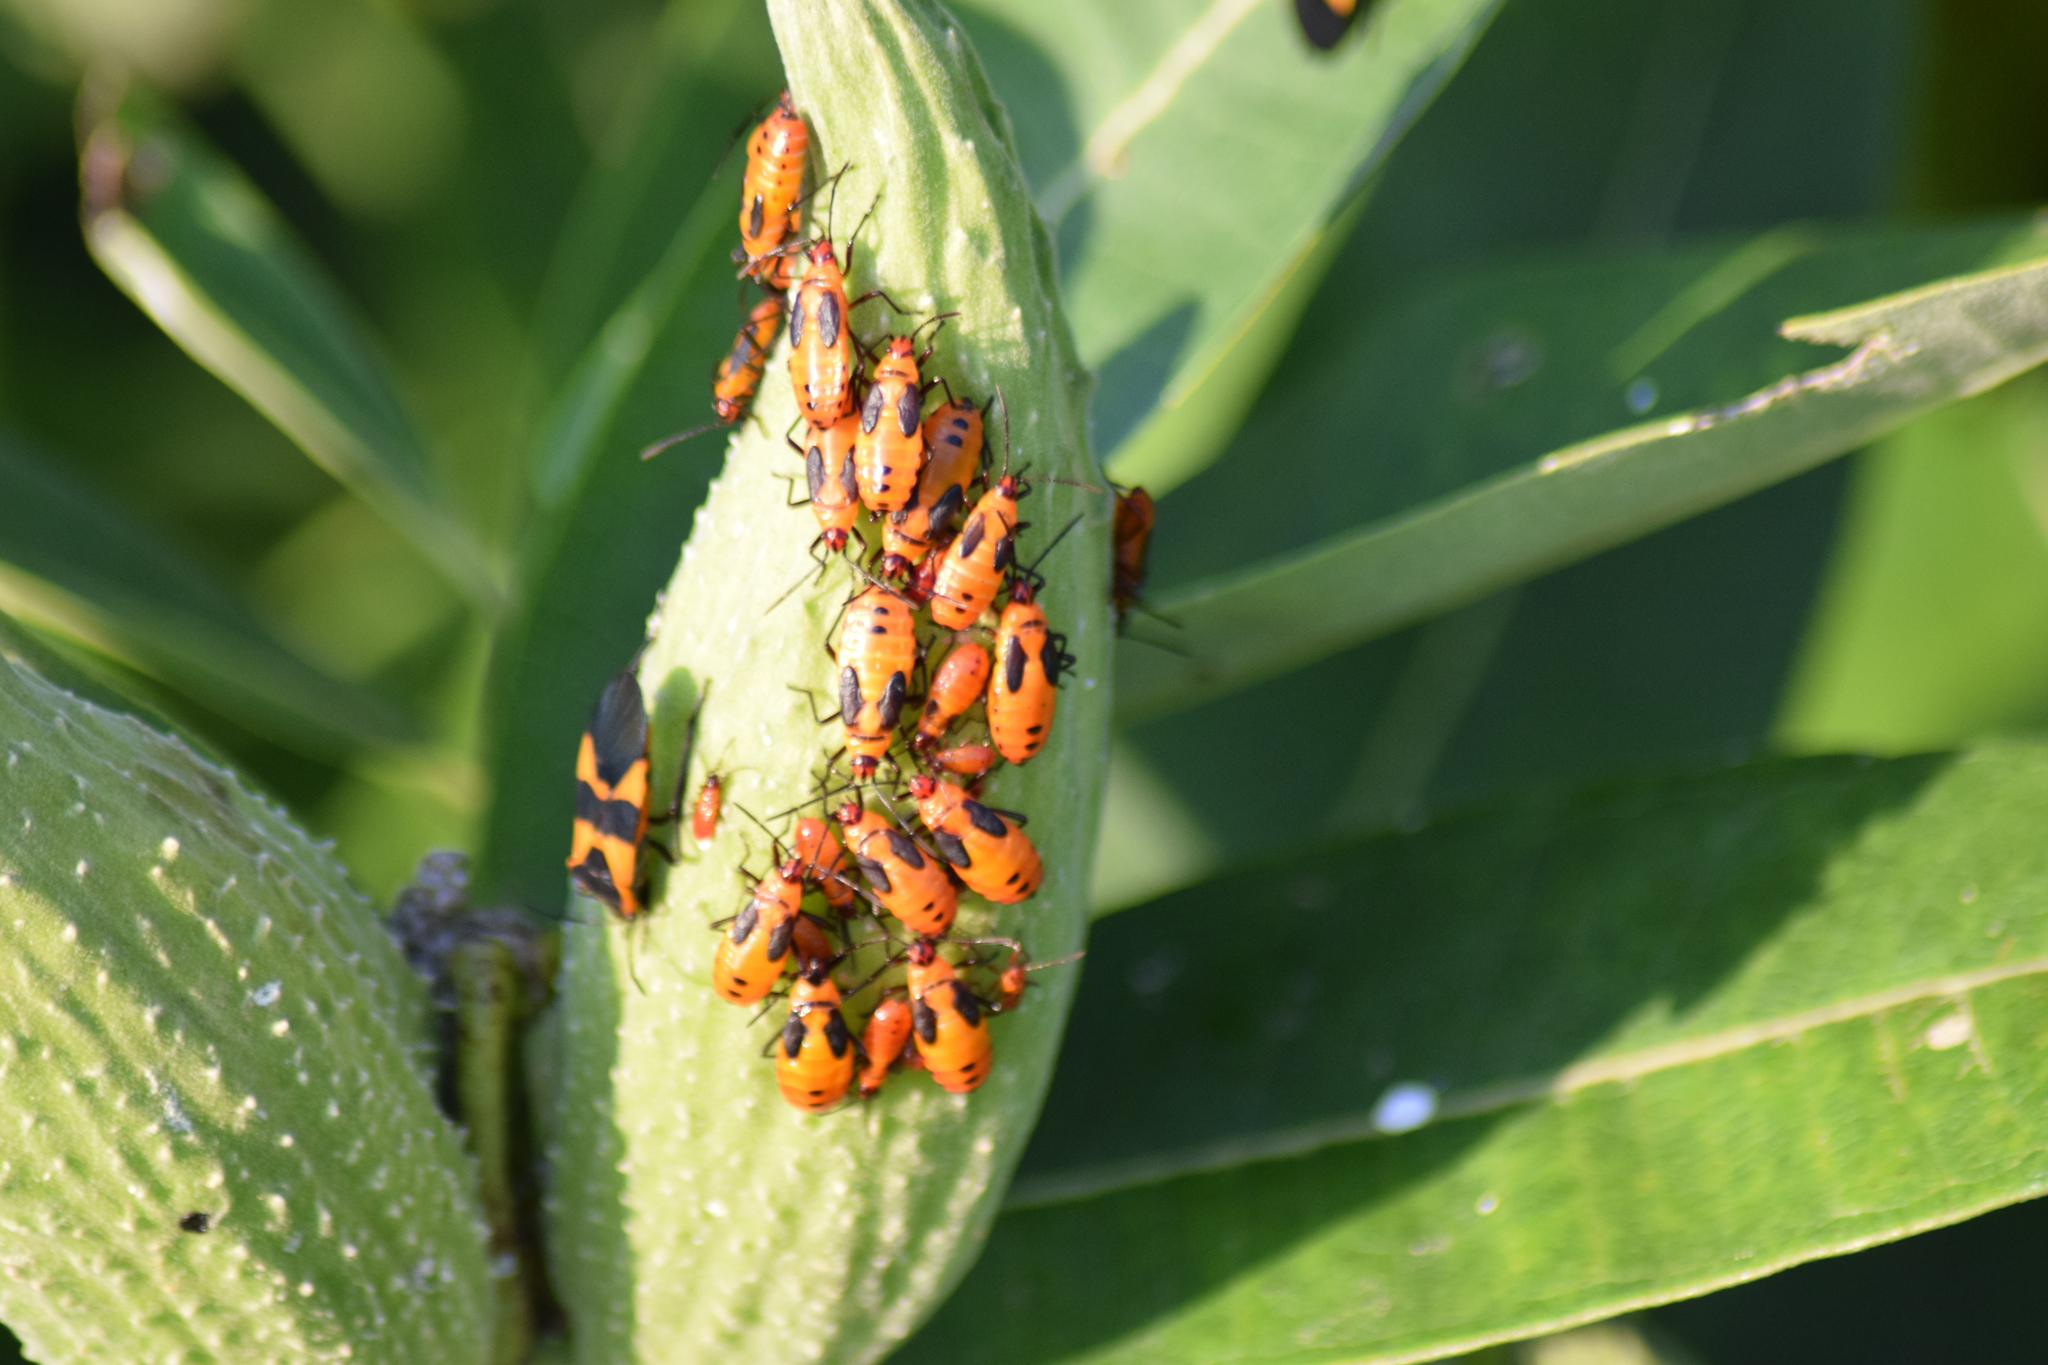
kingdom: Animalia
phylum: Arthropoda
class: Insecta
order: Hemiptera
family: Lygaeidae
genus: Oncopeltus
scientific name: Oncopeltus fasciatus
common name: Large milkweed bug
